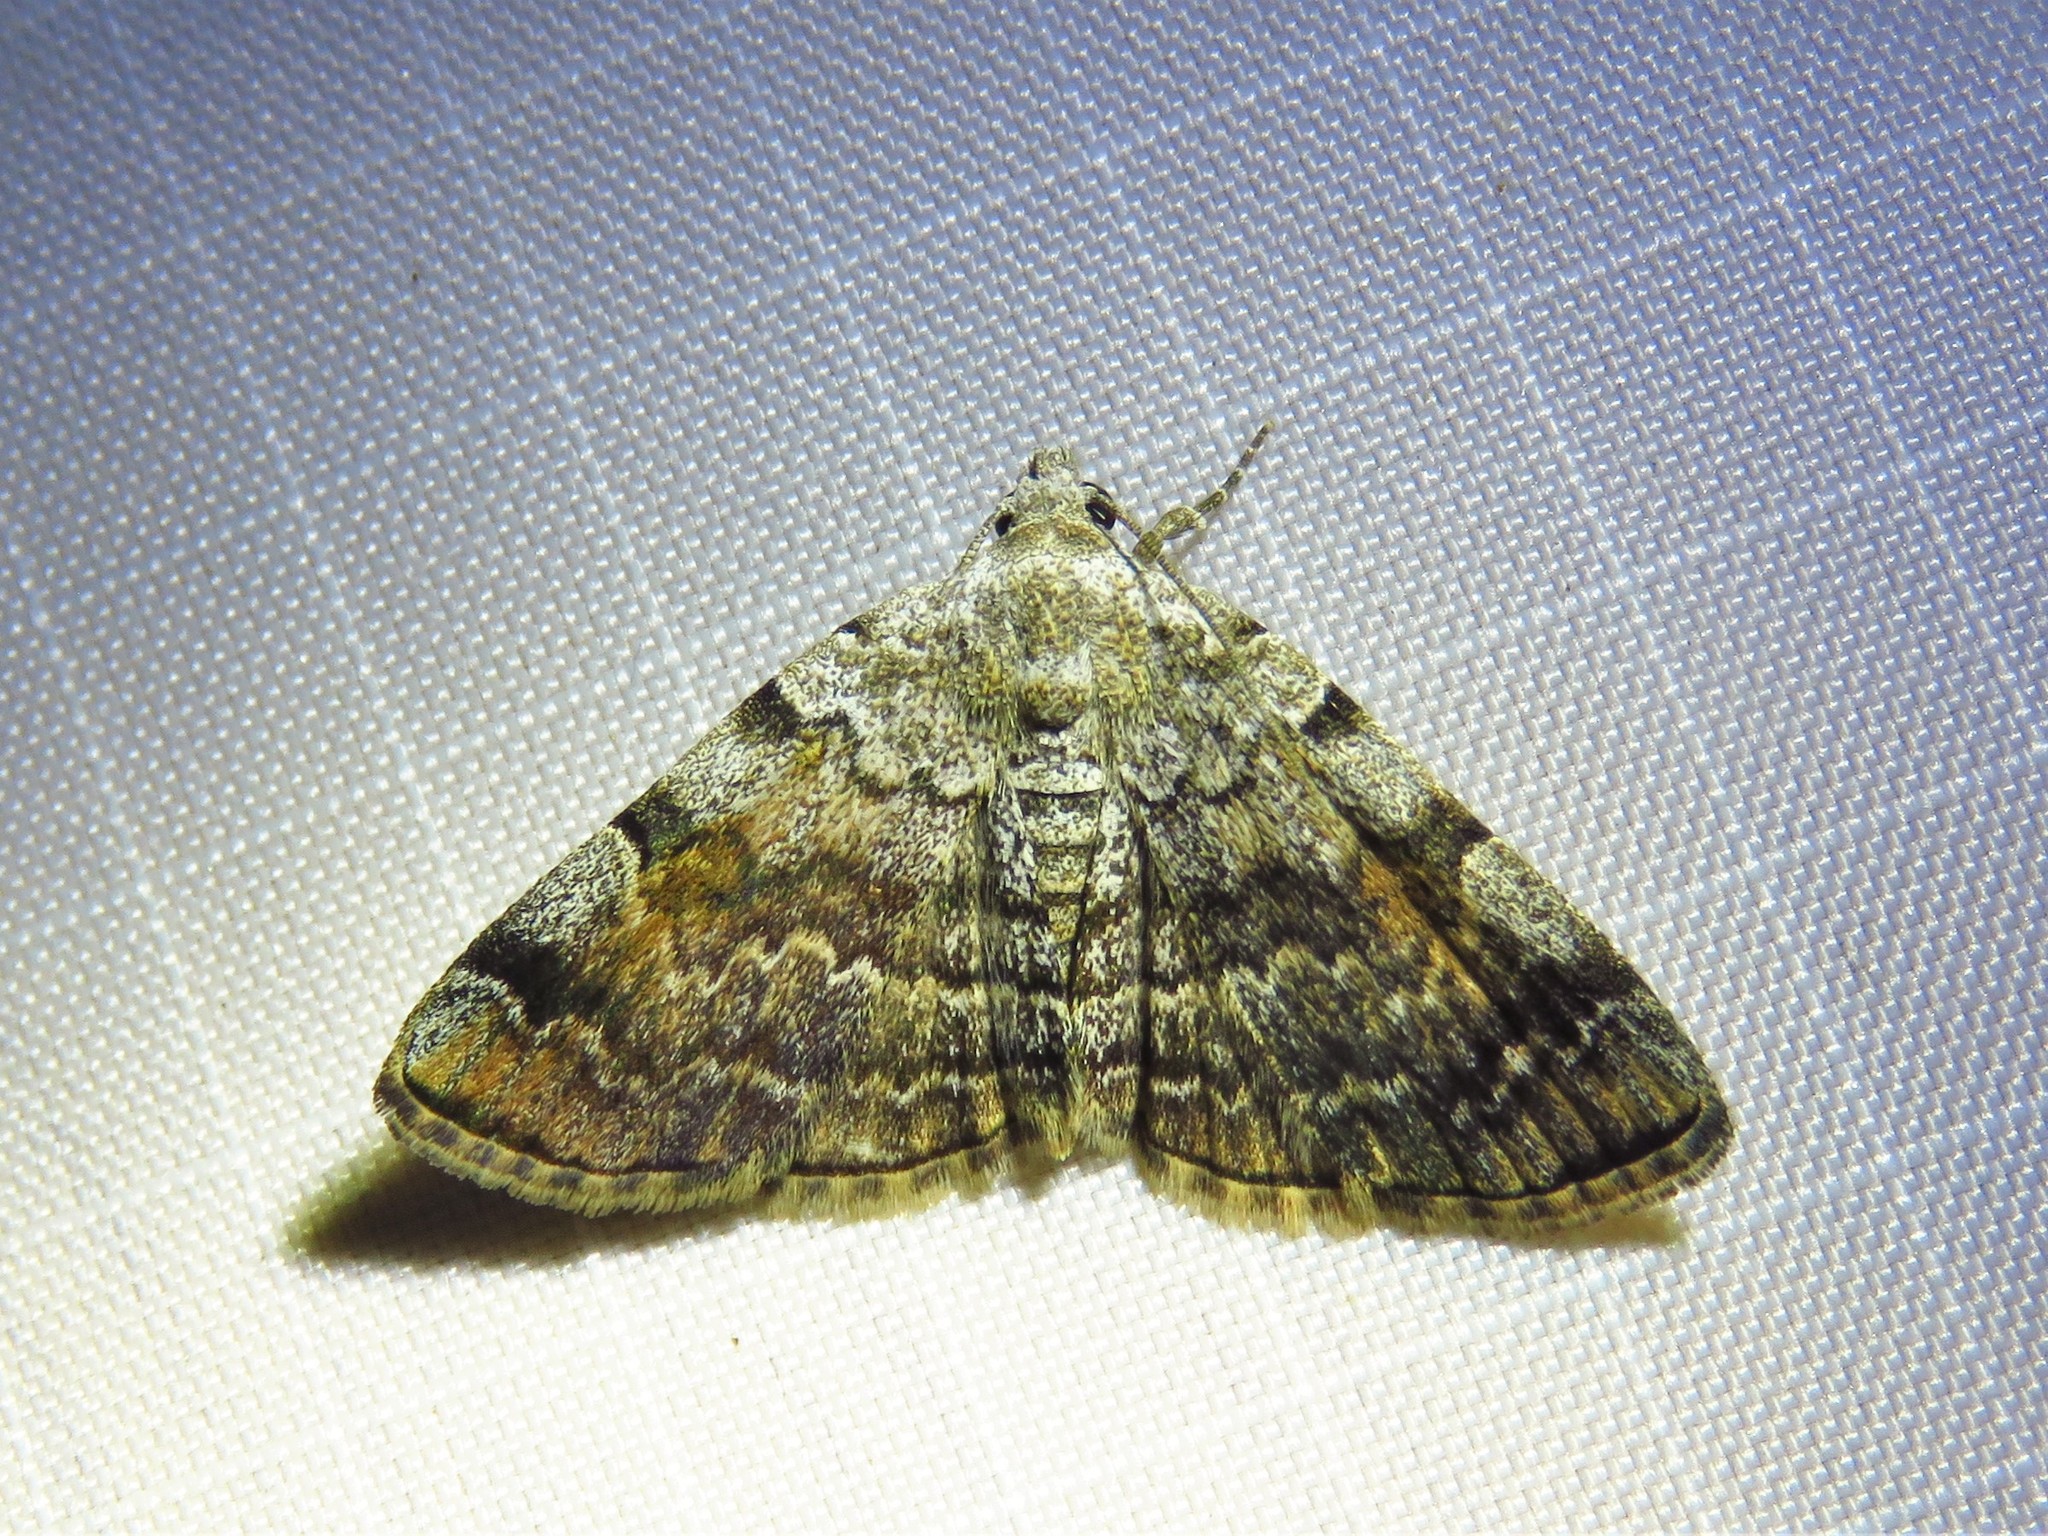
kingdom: Animalia
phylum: Arthropoda
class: Insecta
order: Lepidoptera
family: Erebidae
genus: Idia
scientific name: Idia americalis
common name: American idia moth
